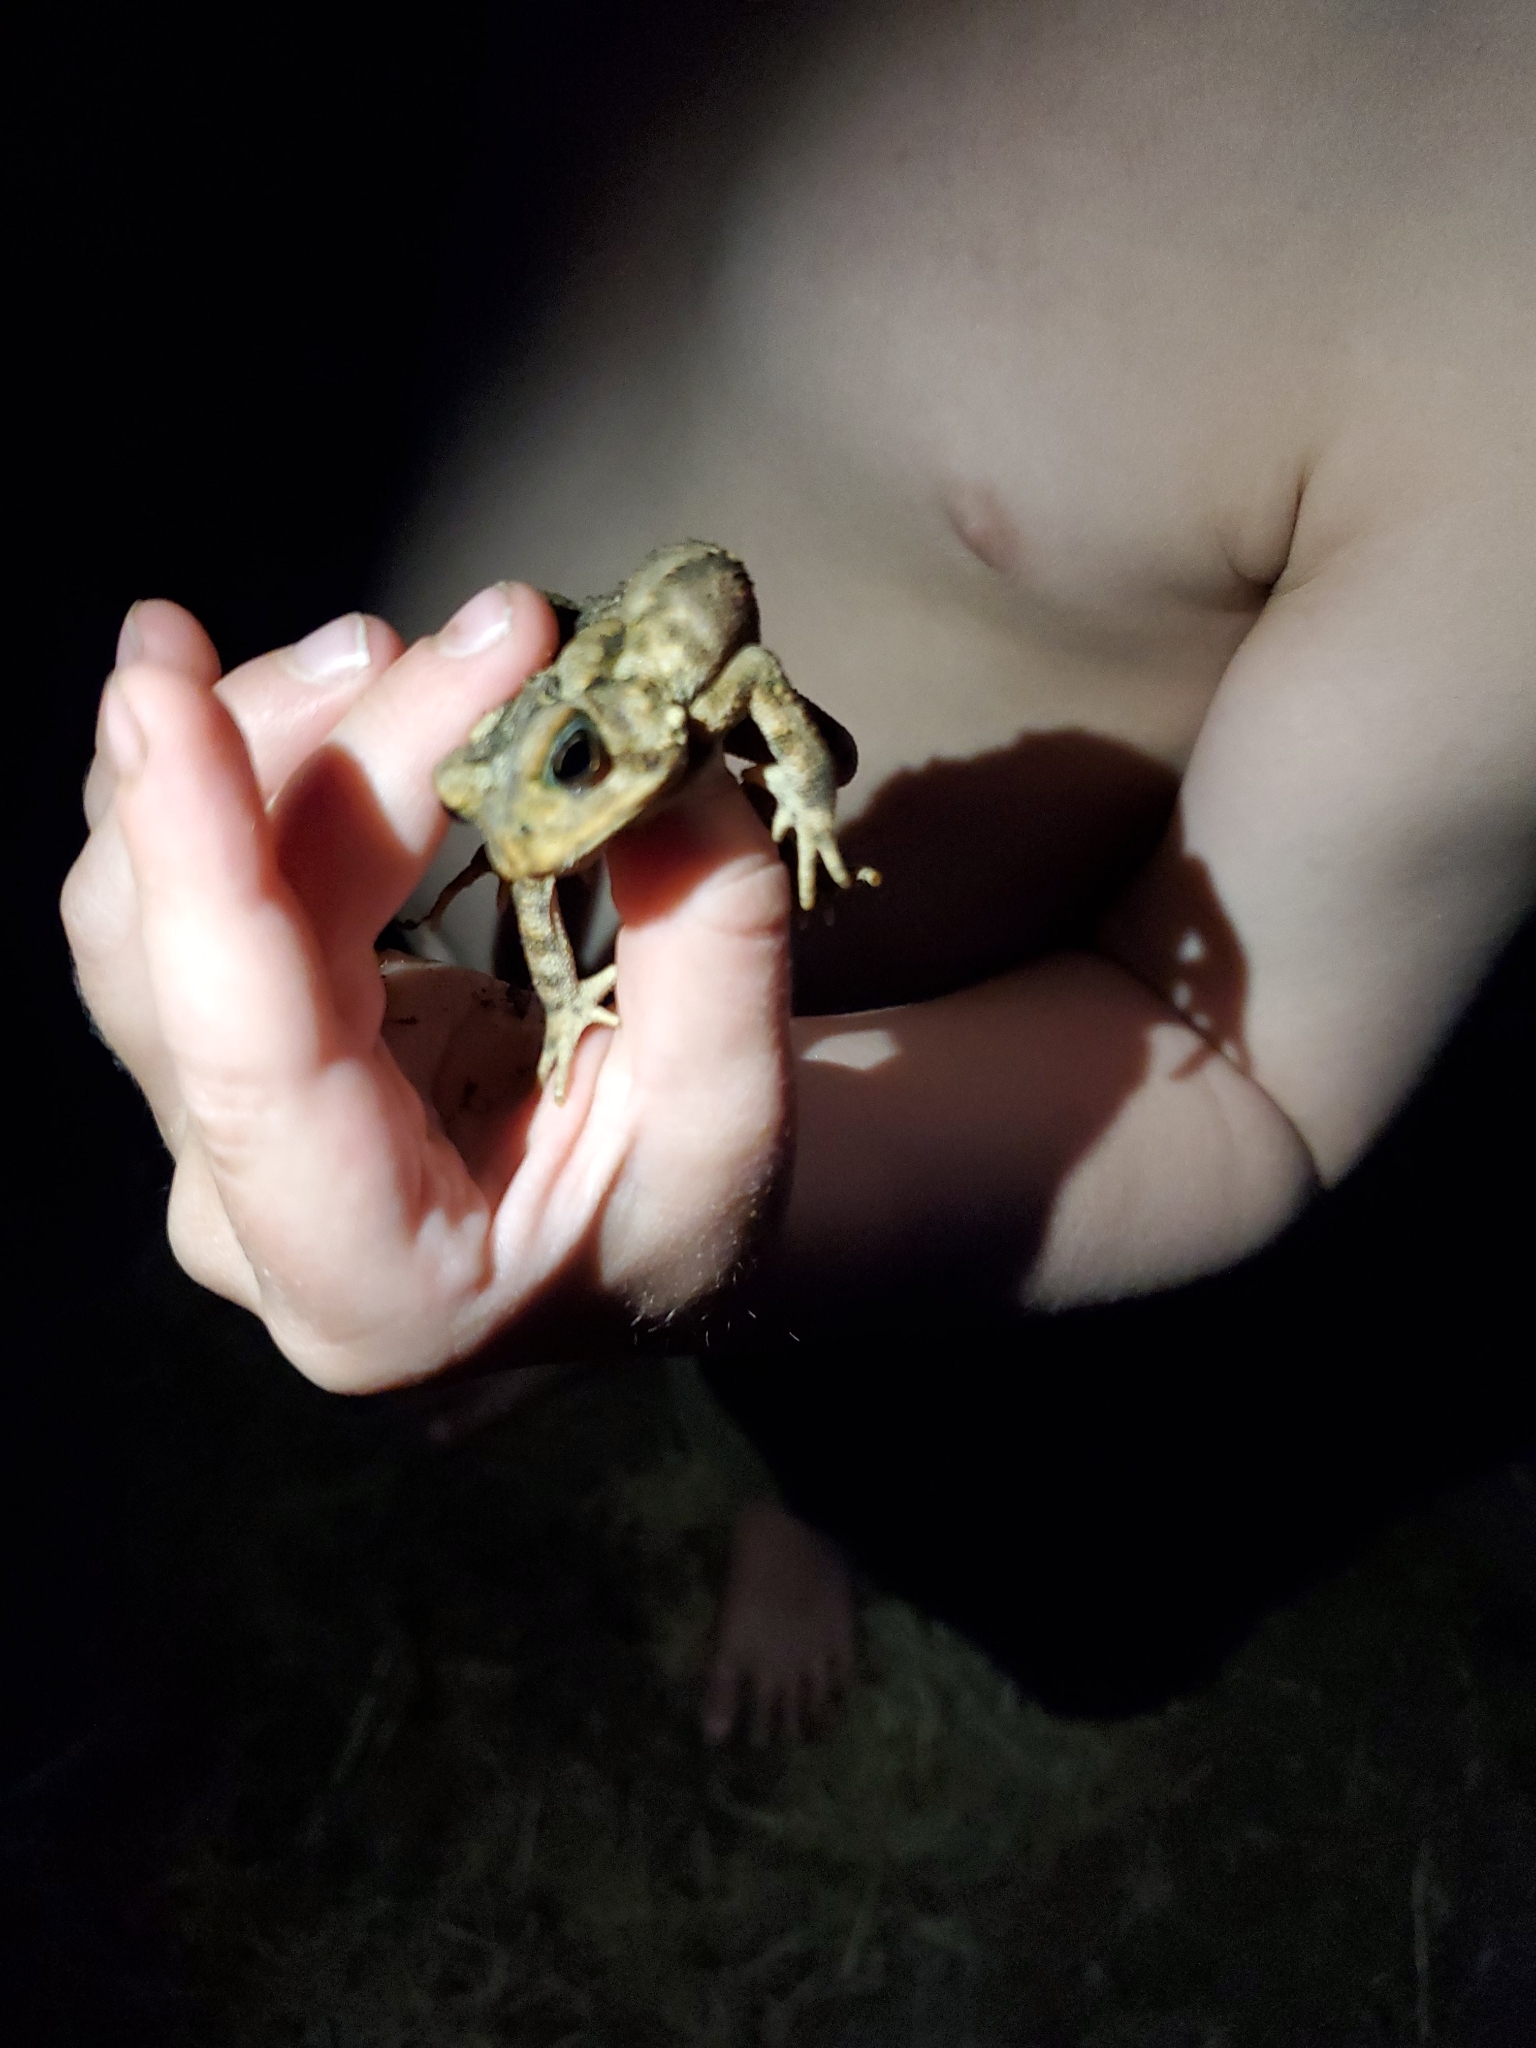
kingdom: Animalia
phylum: Chordata
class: Amphibia
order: Anura
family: Bufonidae
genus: Anaxyrus
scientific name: Anaxyrus americanus
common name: American toad
